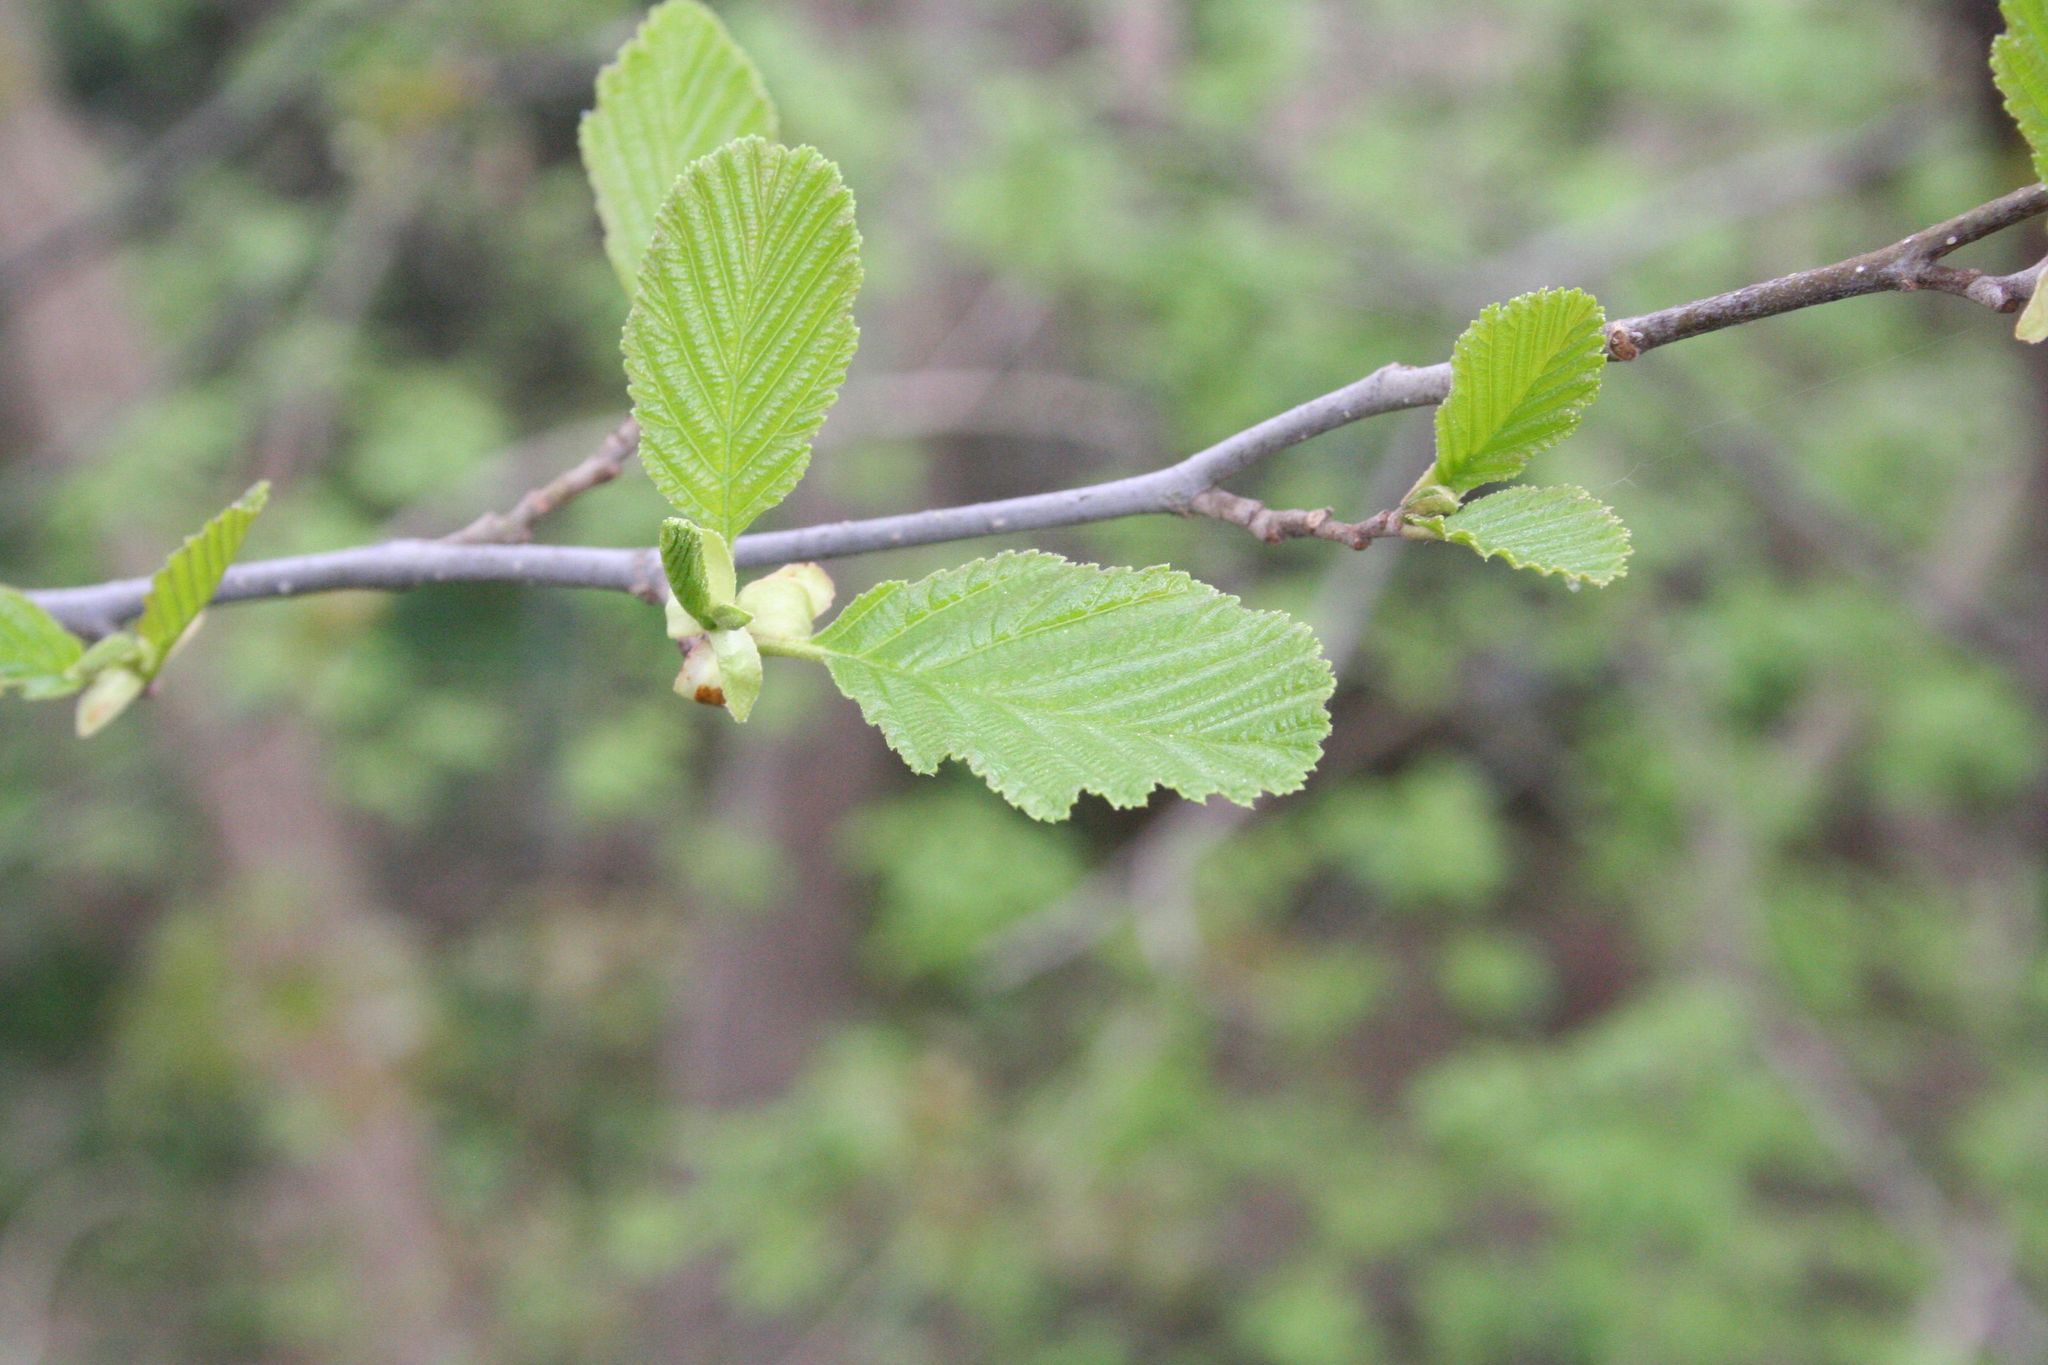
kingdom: Plantae
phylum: Tracheophyta
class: Magnoliopsida
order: Fagales
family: Betulaceae
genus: Alnus
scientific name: Alnus glutinosa
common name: Black alder
